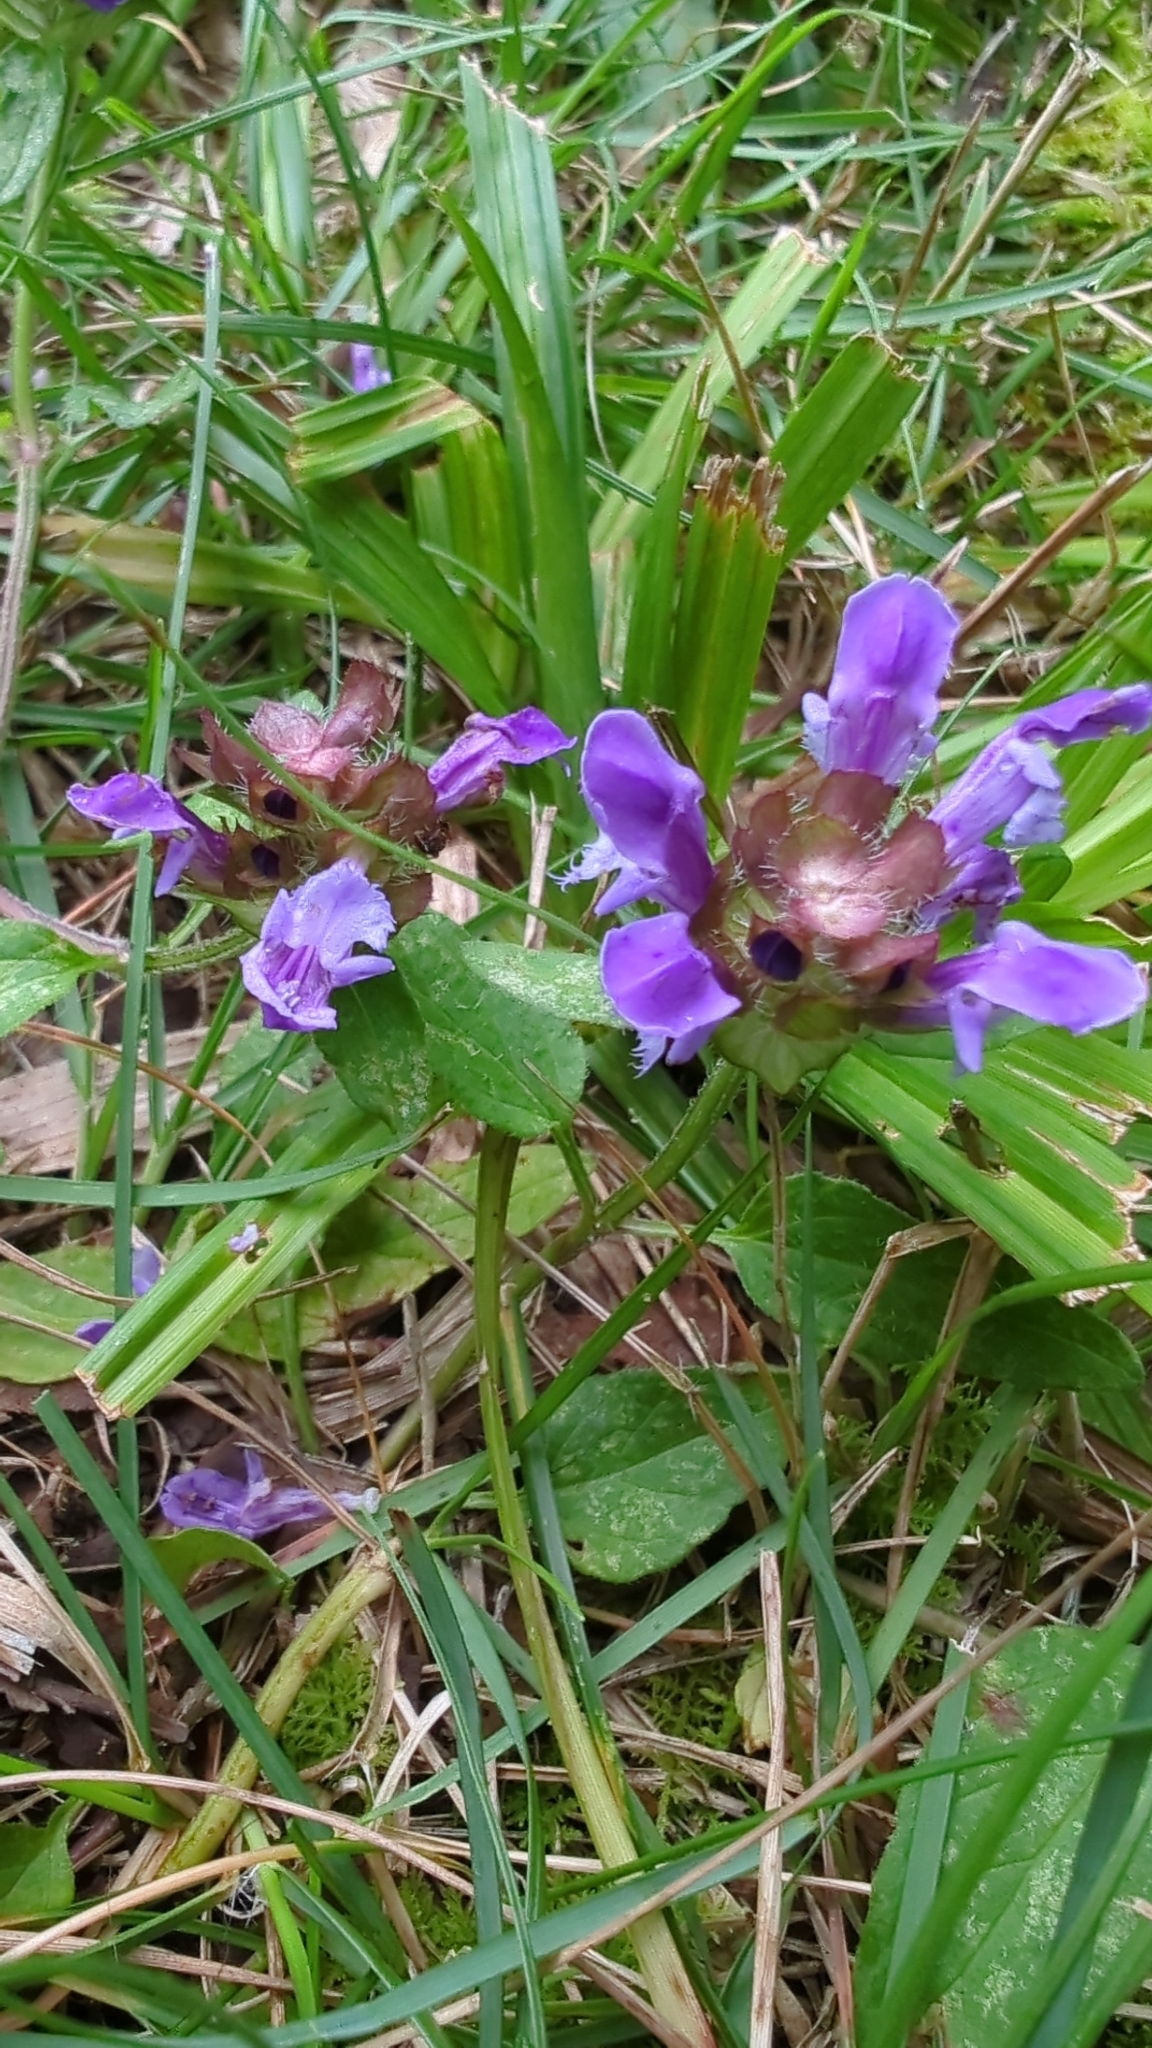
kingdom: Plantae
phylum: Tracheophyta
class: Magnoliopsida
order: Lamiales
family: Lamiaceae
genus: Prunella
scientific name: Prunella vulgaris
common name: Heal-all
